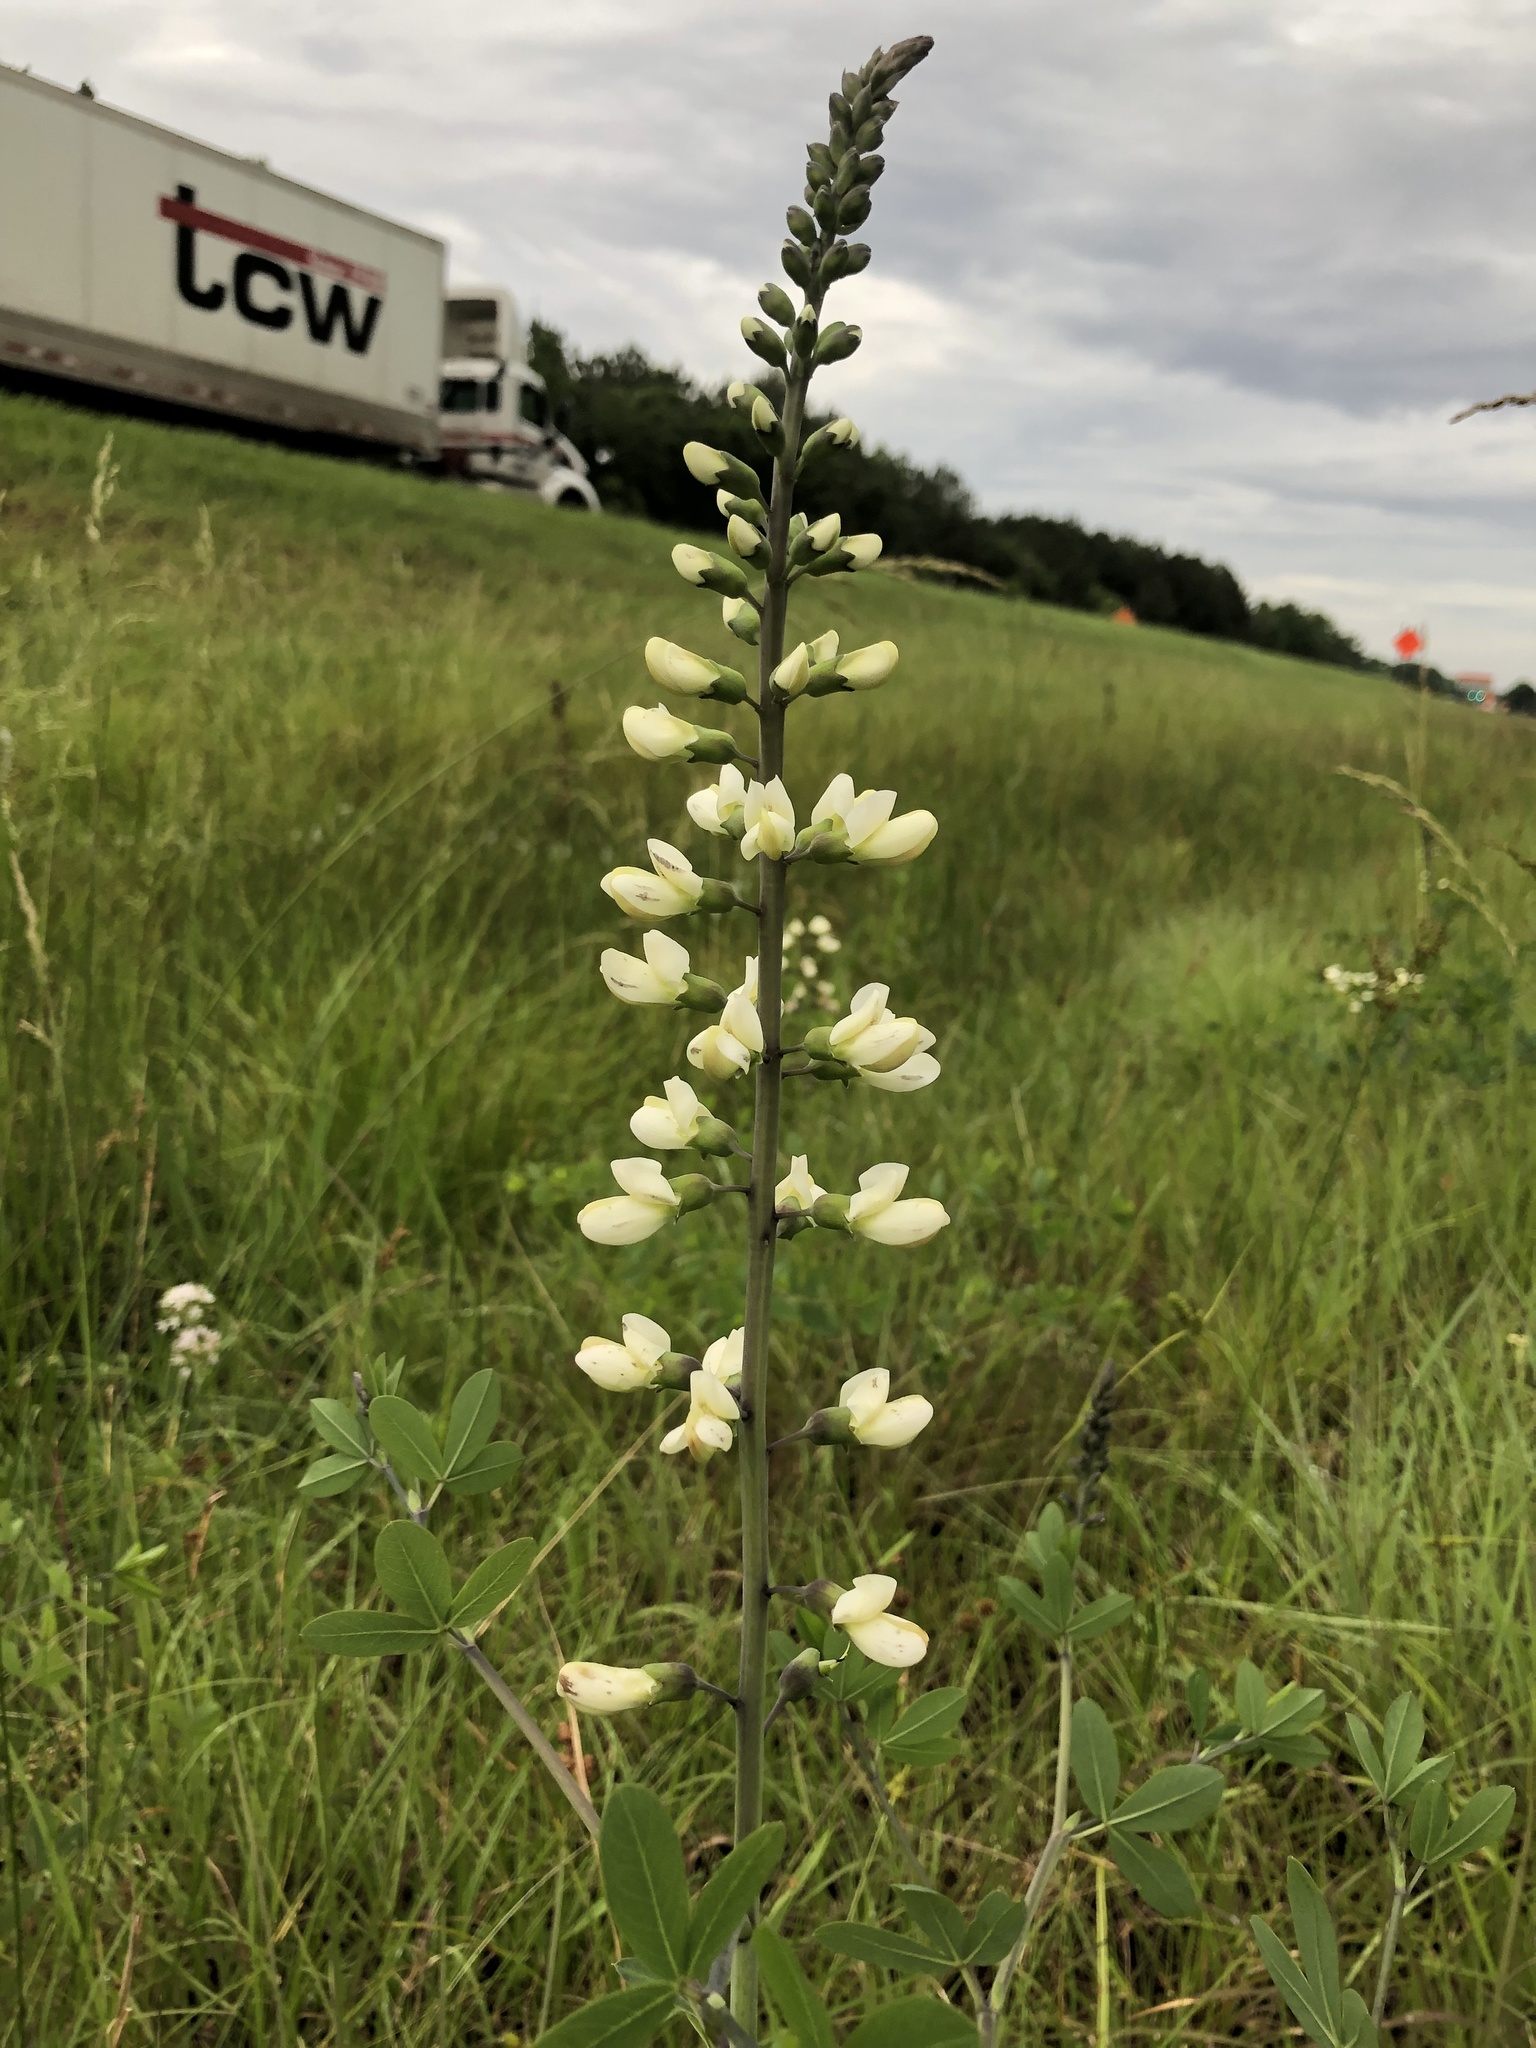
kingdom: Plantae
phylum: Tracheophyta
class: Magnoliopsida
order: Fabales
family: Fabaceae
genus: Baptisia
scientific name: Baptisia alba
